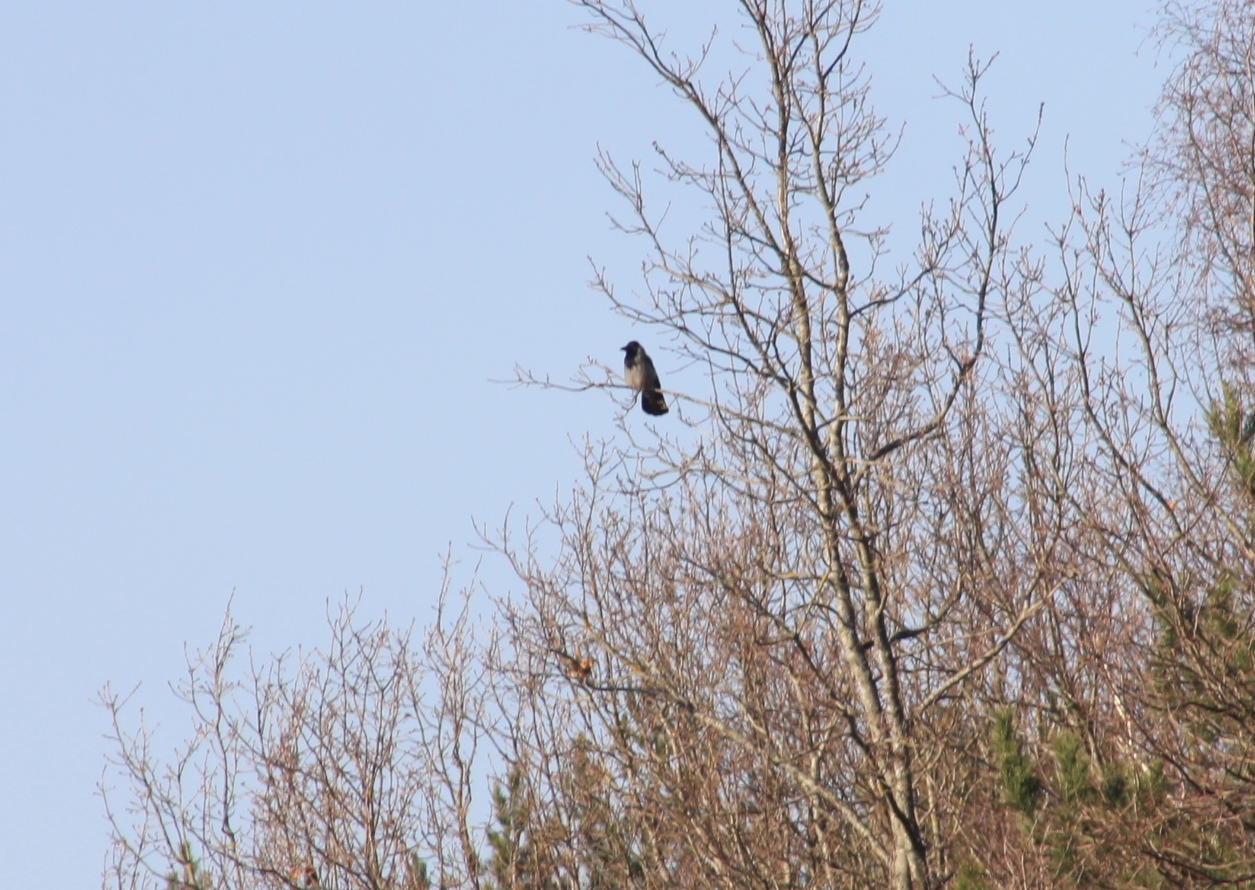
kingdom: Animalia
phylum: Chordata
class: Aves
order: Passeriformes
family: Corvidae
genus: Corvus
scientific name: Corvus cornix
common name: Hooded crow
